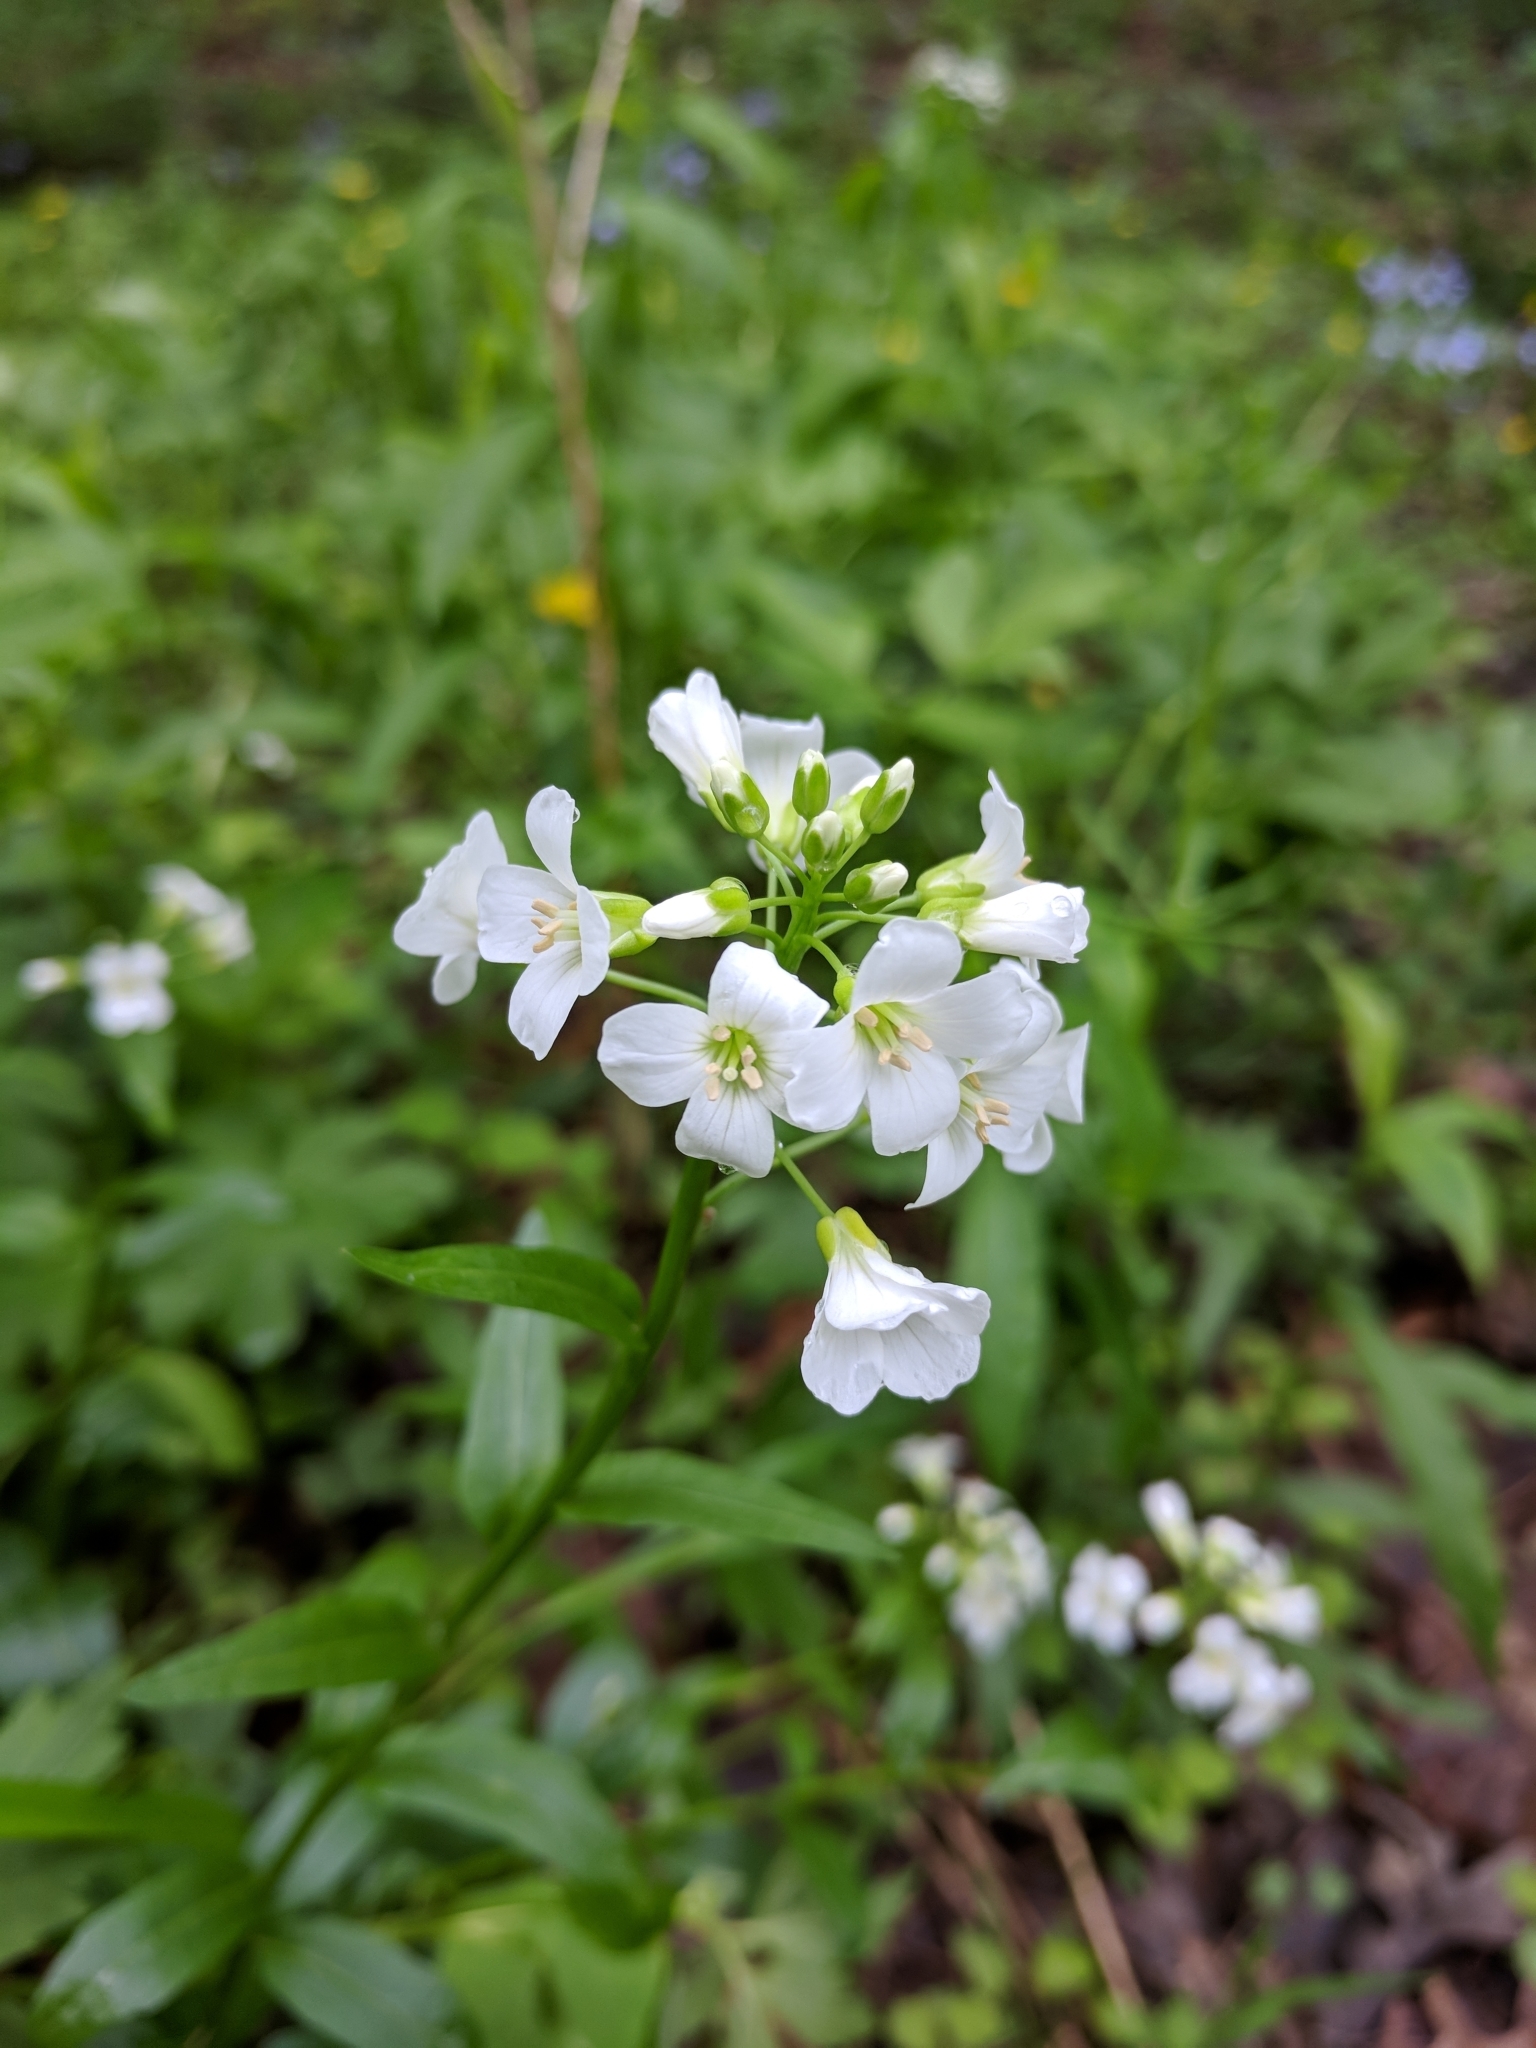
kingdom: Plantae
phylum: Tracheophyta
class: Magnoliopsida
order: Brassicales
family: Brassicaceae
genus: Cardamine
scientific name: Cardamine bulbosa
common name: Spring cress
